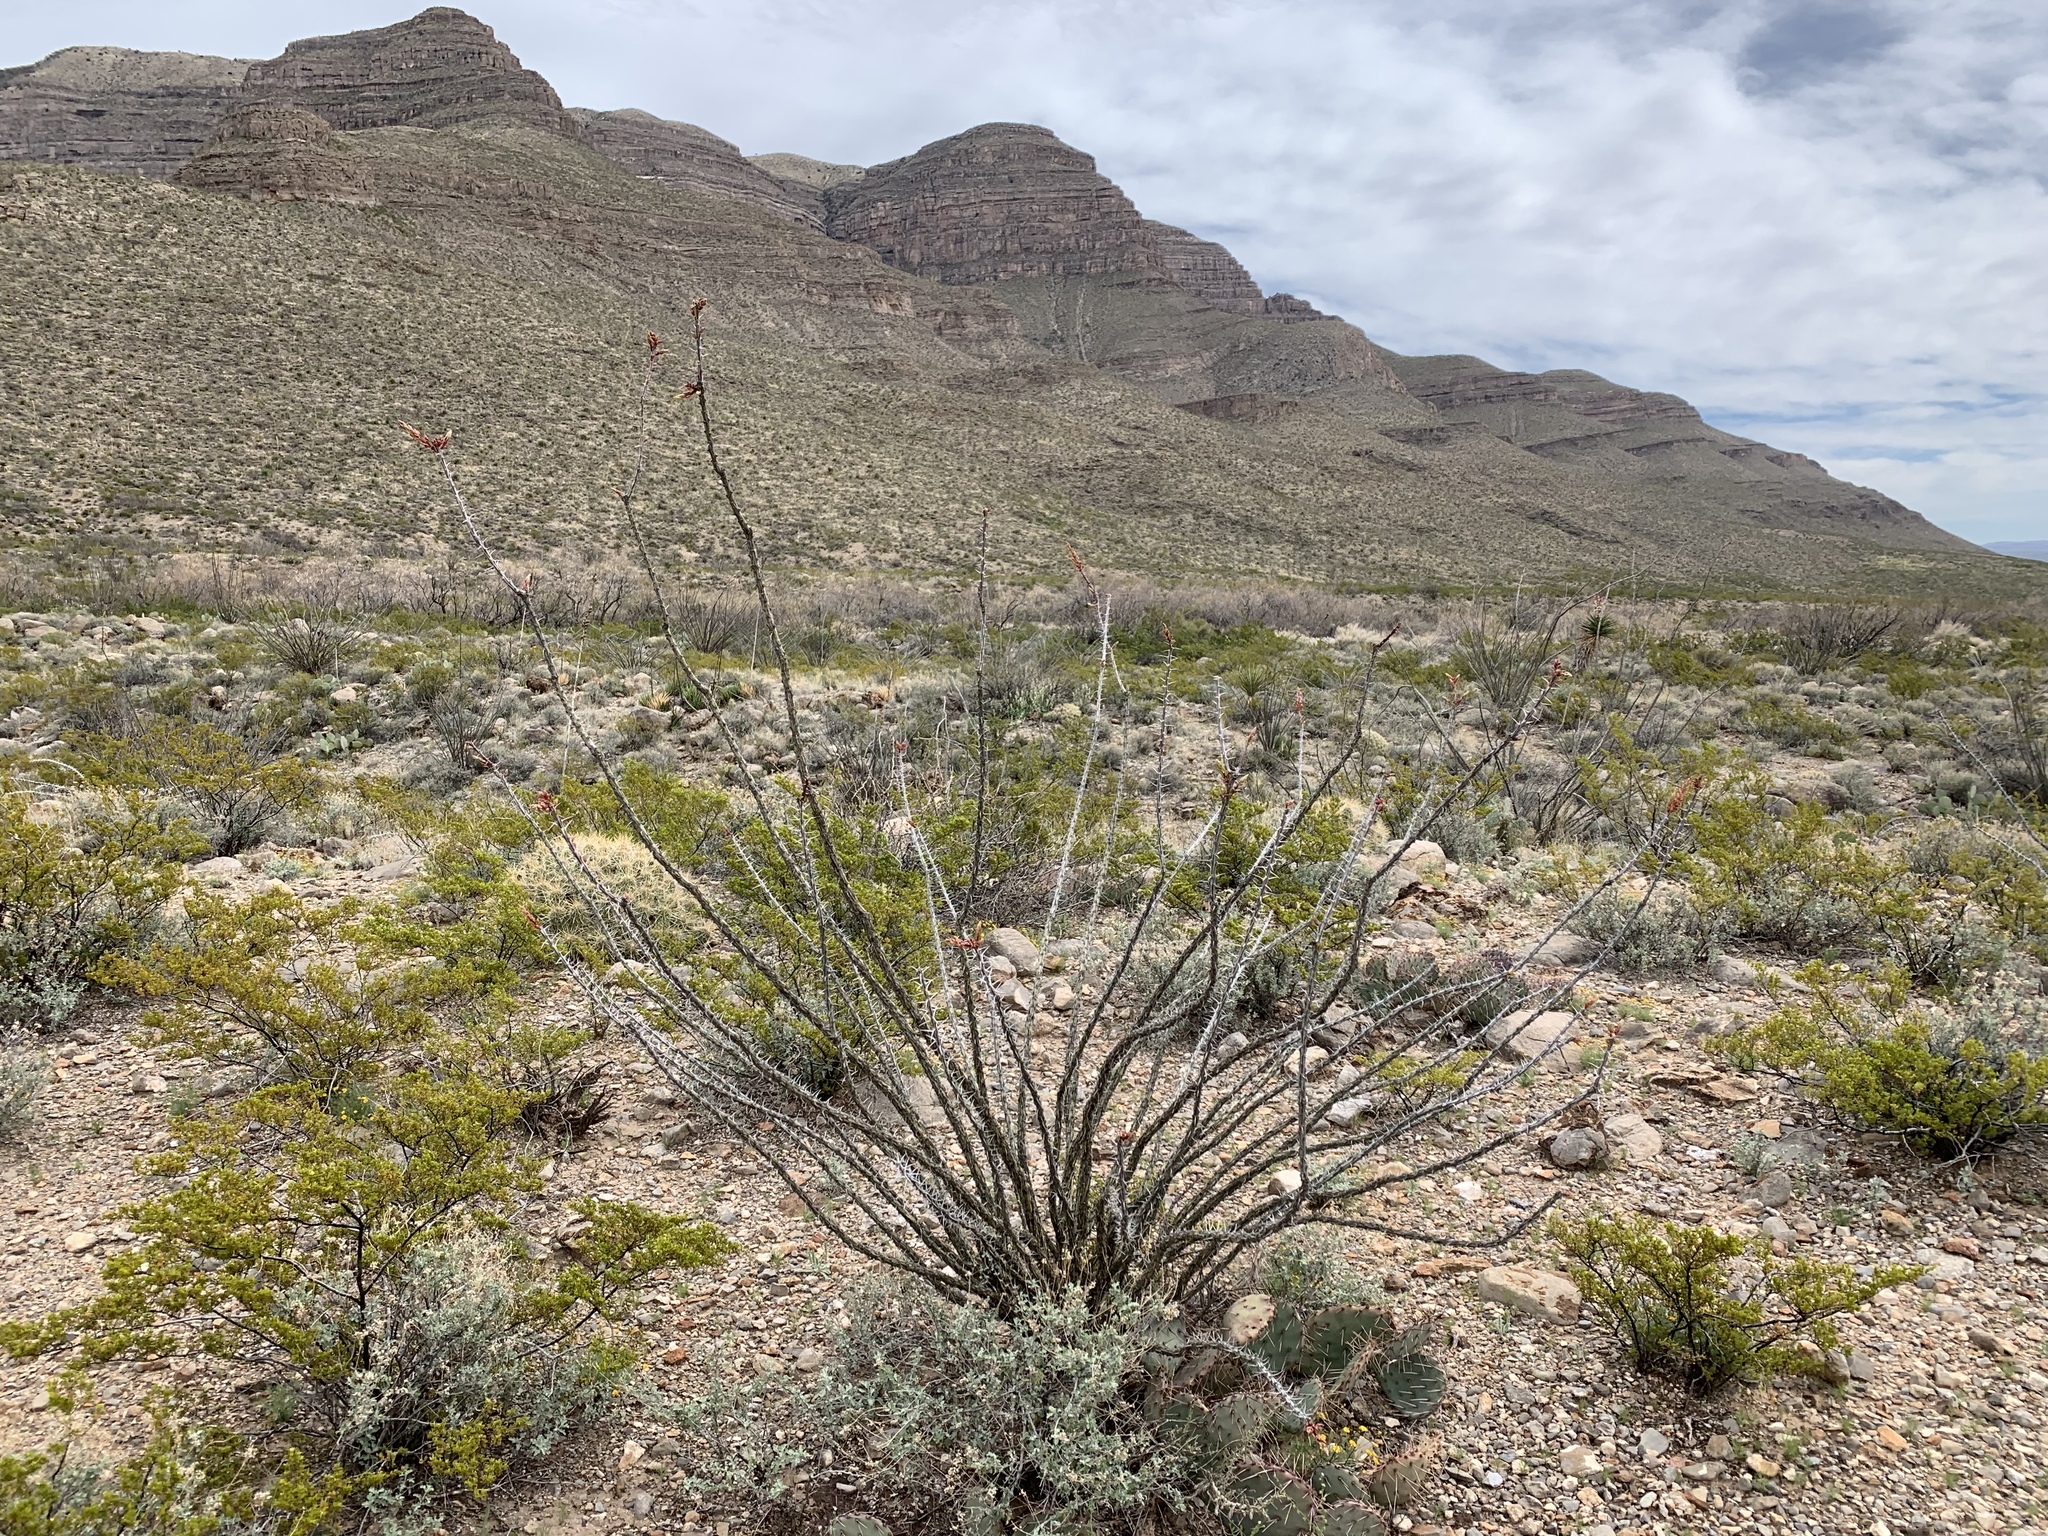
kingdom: Plantae
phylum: Tracheophyta
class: Magnoliopsida
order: Ericales
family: Fouquieriaceae
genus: Fouquieria
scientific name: Fouquieria splendens
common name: Vine-cactus
